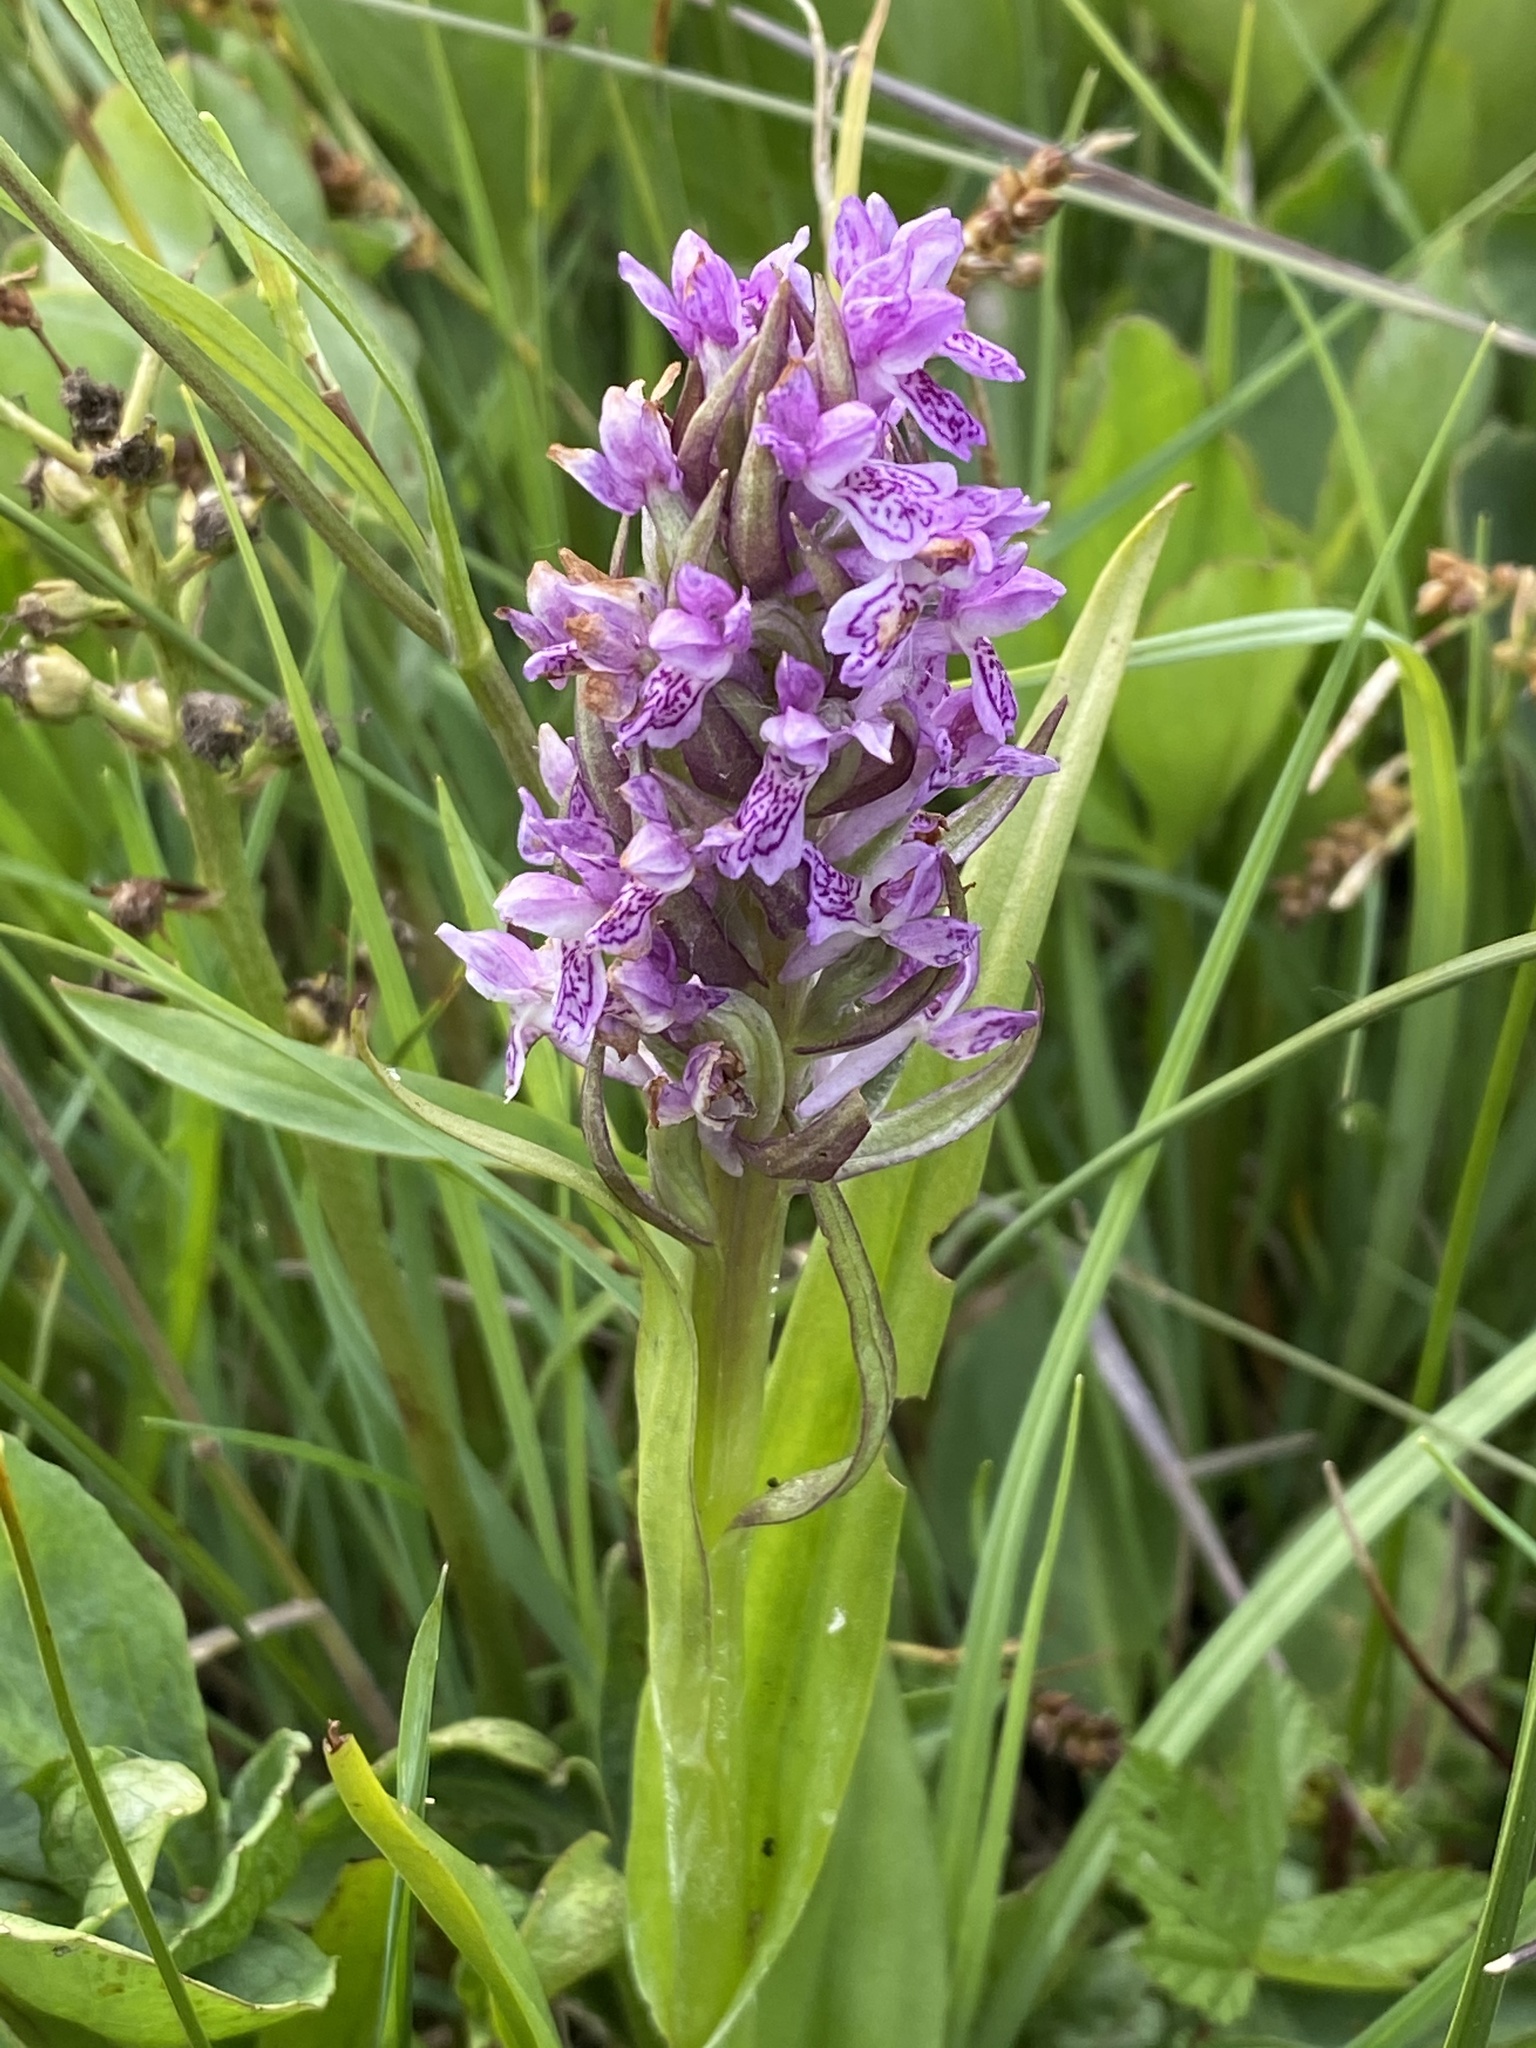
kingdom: Plantae
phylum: Tracheophyta
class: Liliopsida
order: Asparagales
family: Orchidaceae
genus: Dactylorhiza
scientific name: Dactylorhiza incarnata
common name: Early marsh-orchid
